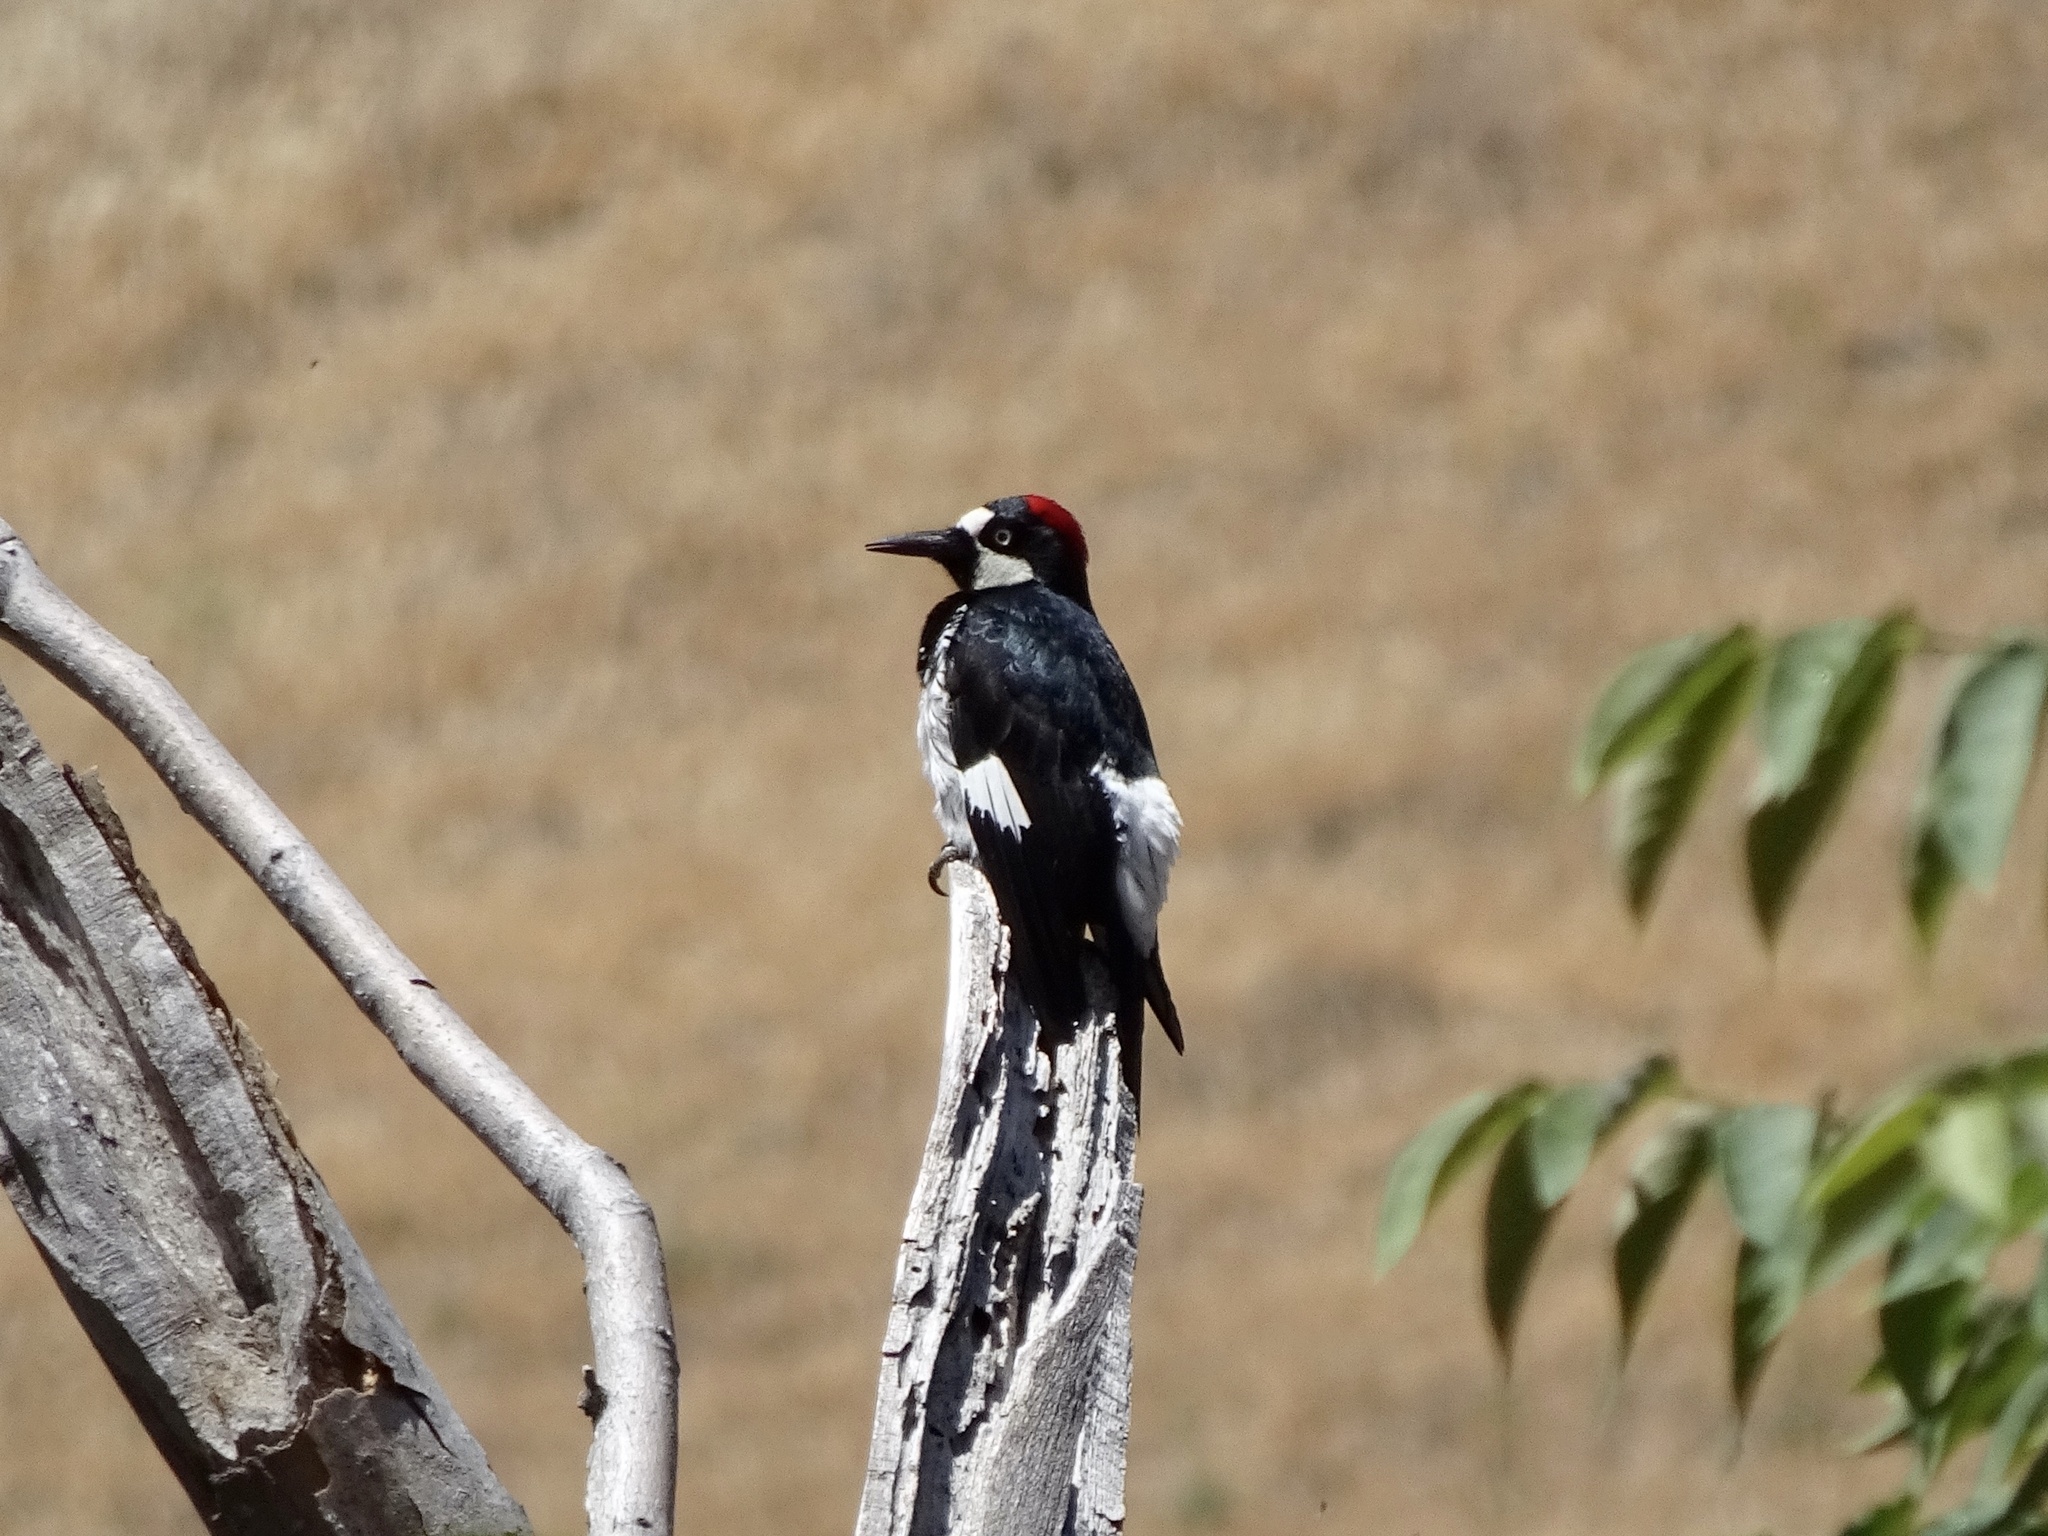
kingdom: Animalia
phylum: Chordata
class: Aves
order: Piciformes
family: Picidae
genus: Melanerpes
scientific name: Melanerpes formicivorus
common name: Acorn woodpecker
